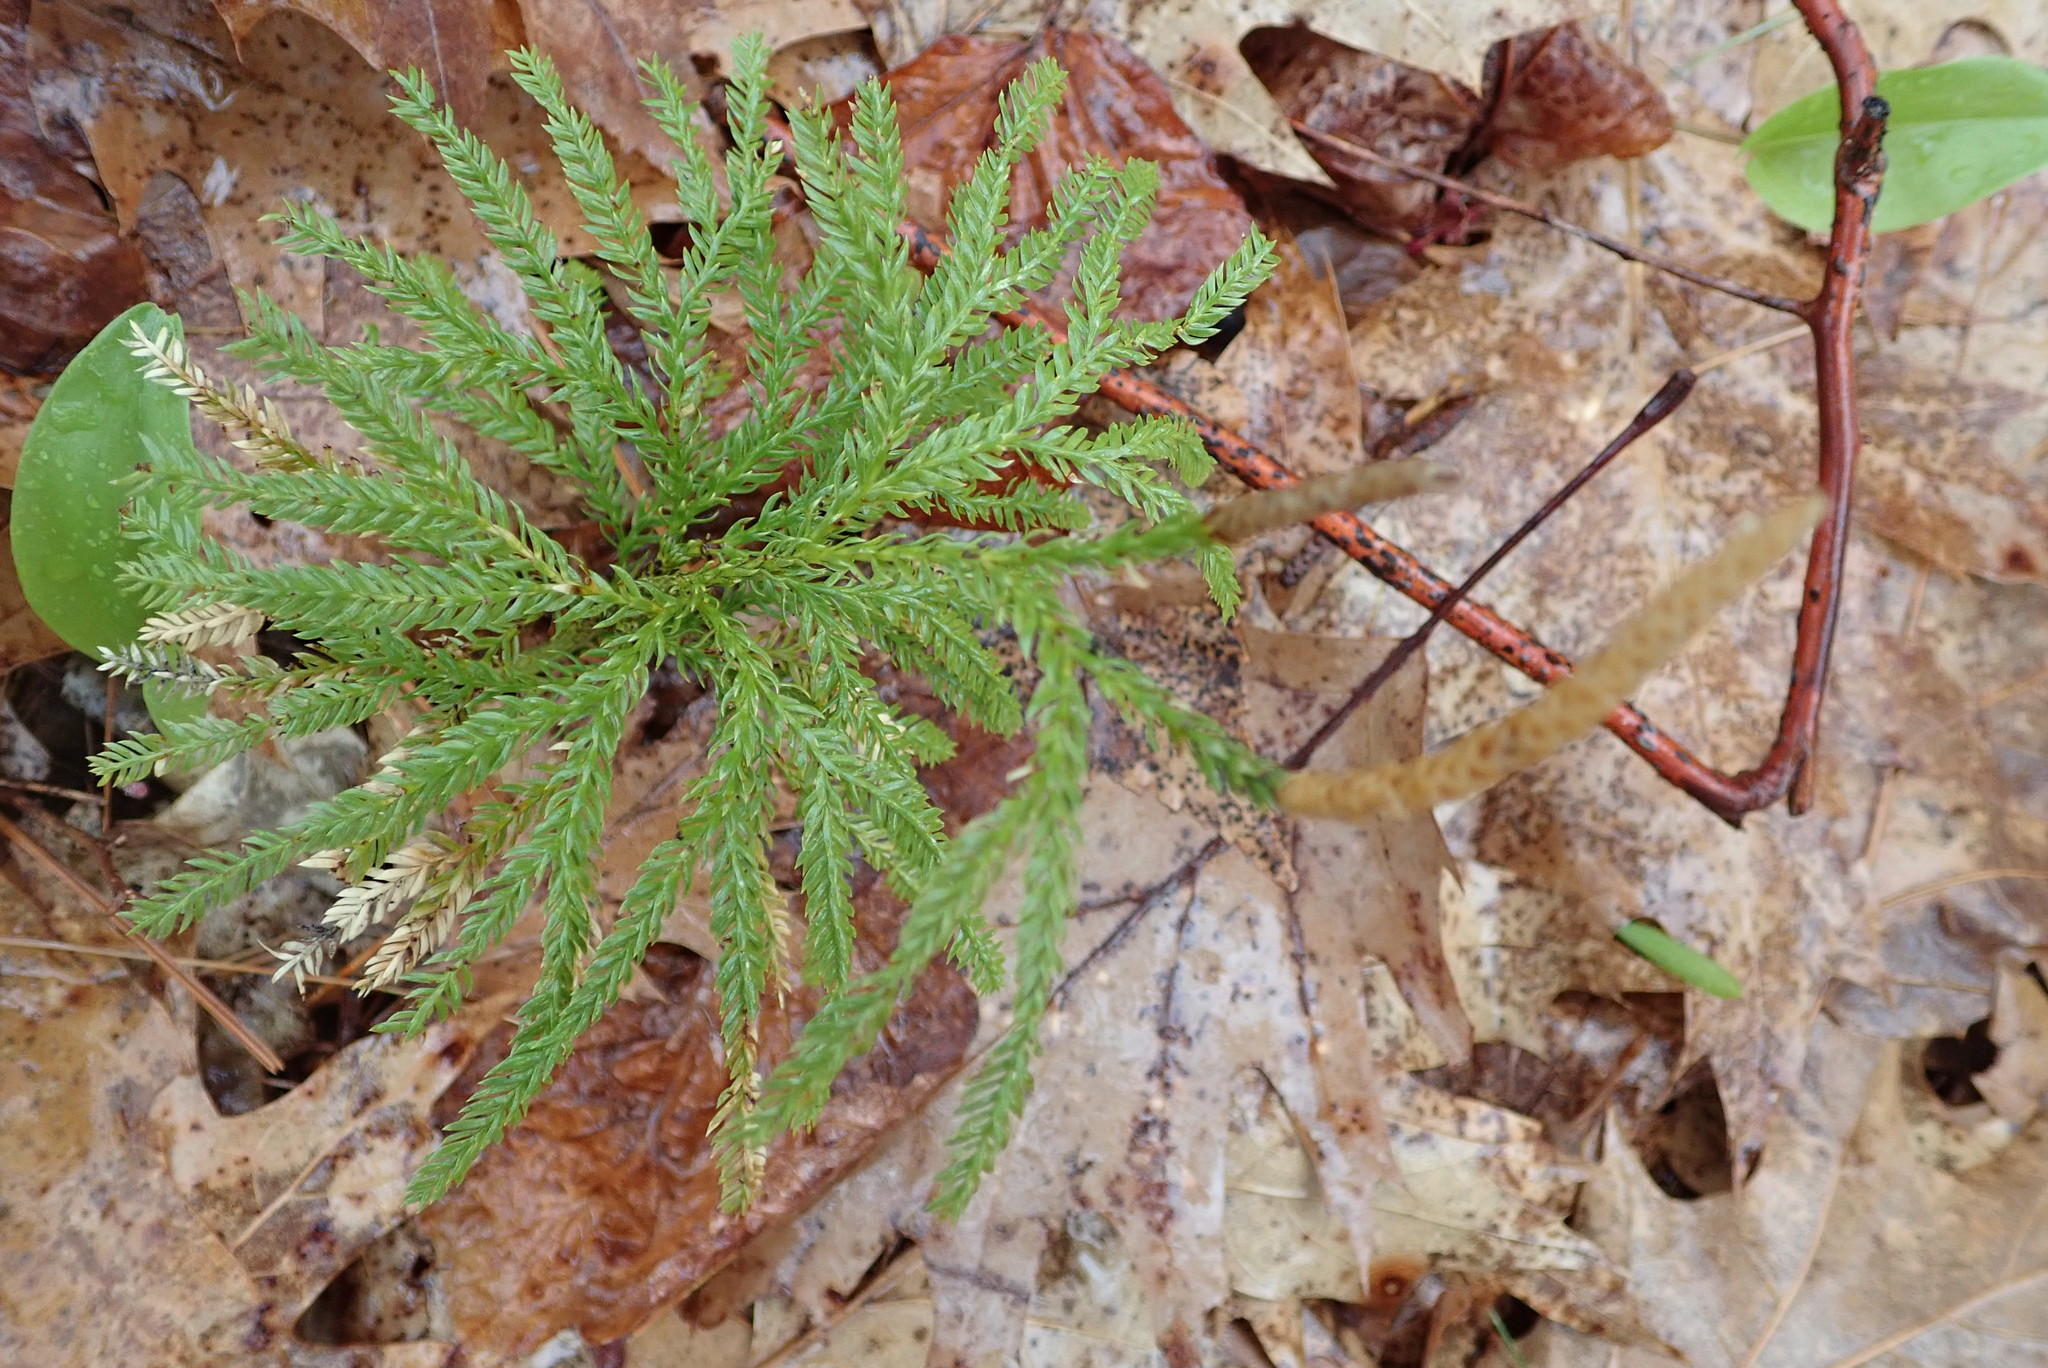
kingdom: Plantae
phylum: Tracheophyta
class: Lycopodiopsida
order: Lycopodiales
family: Lycopodiaceae
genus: Dendrolycopodium
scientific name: Dendrolycopodium obscurum
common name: Common ground-pine
